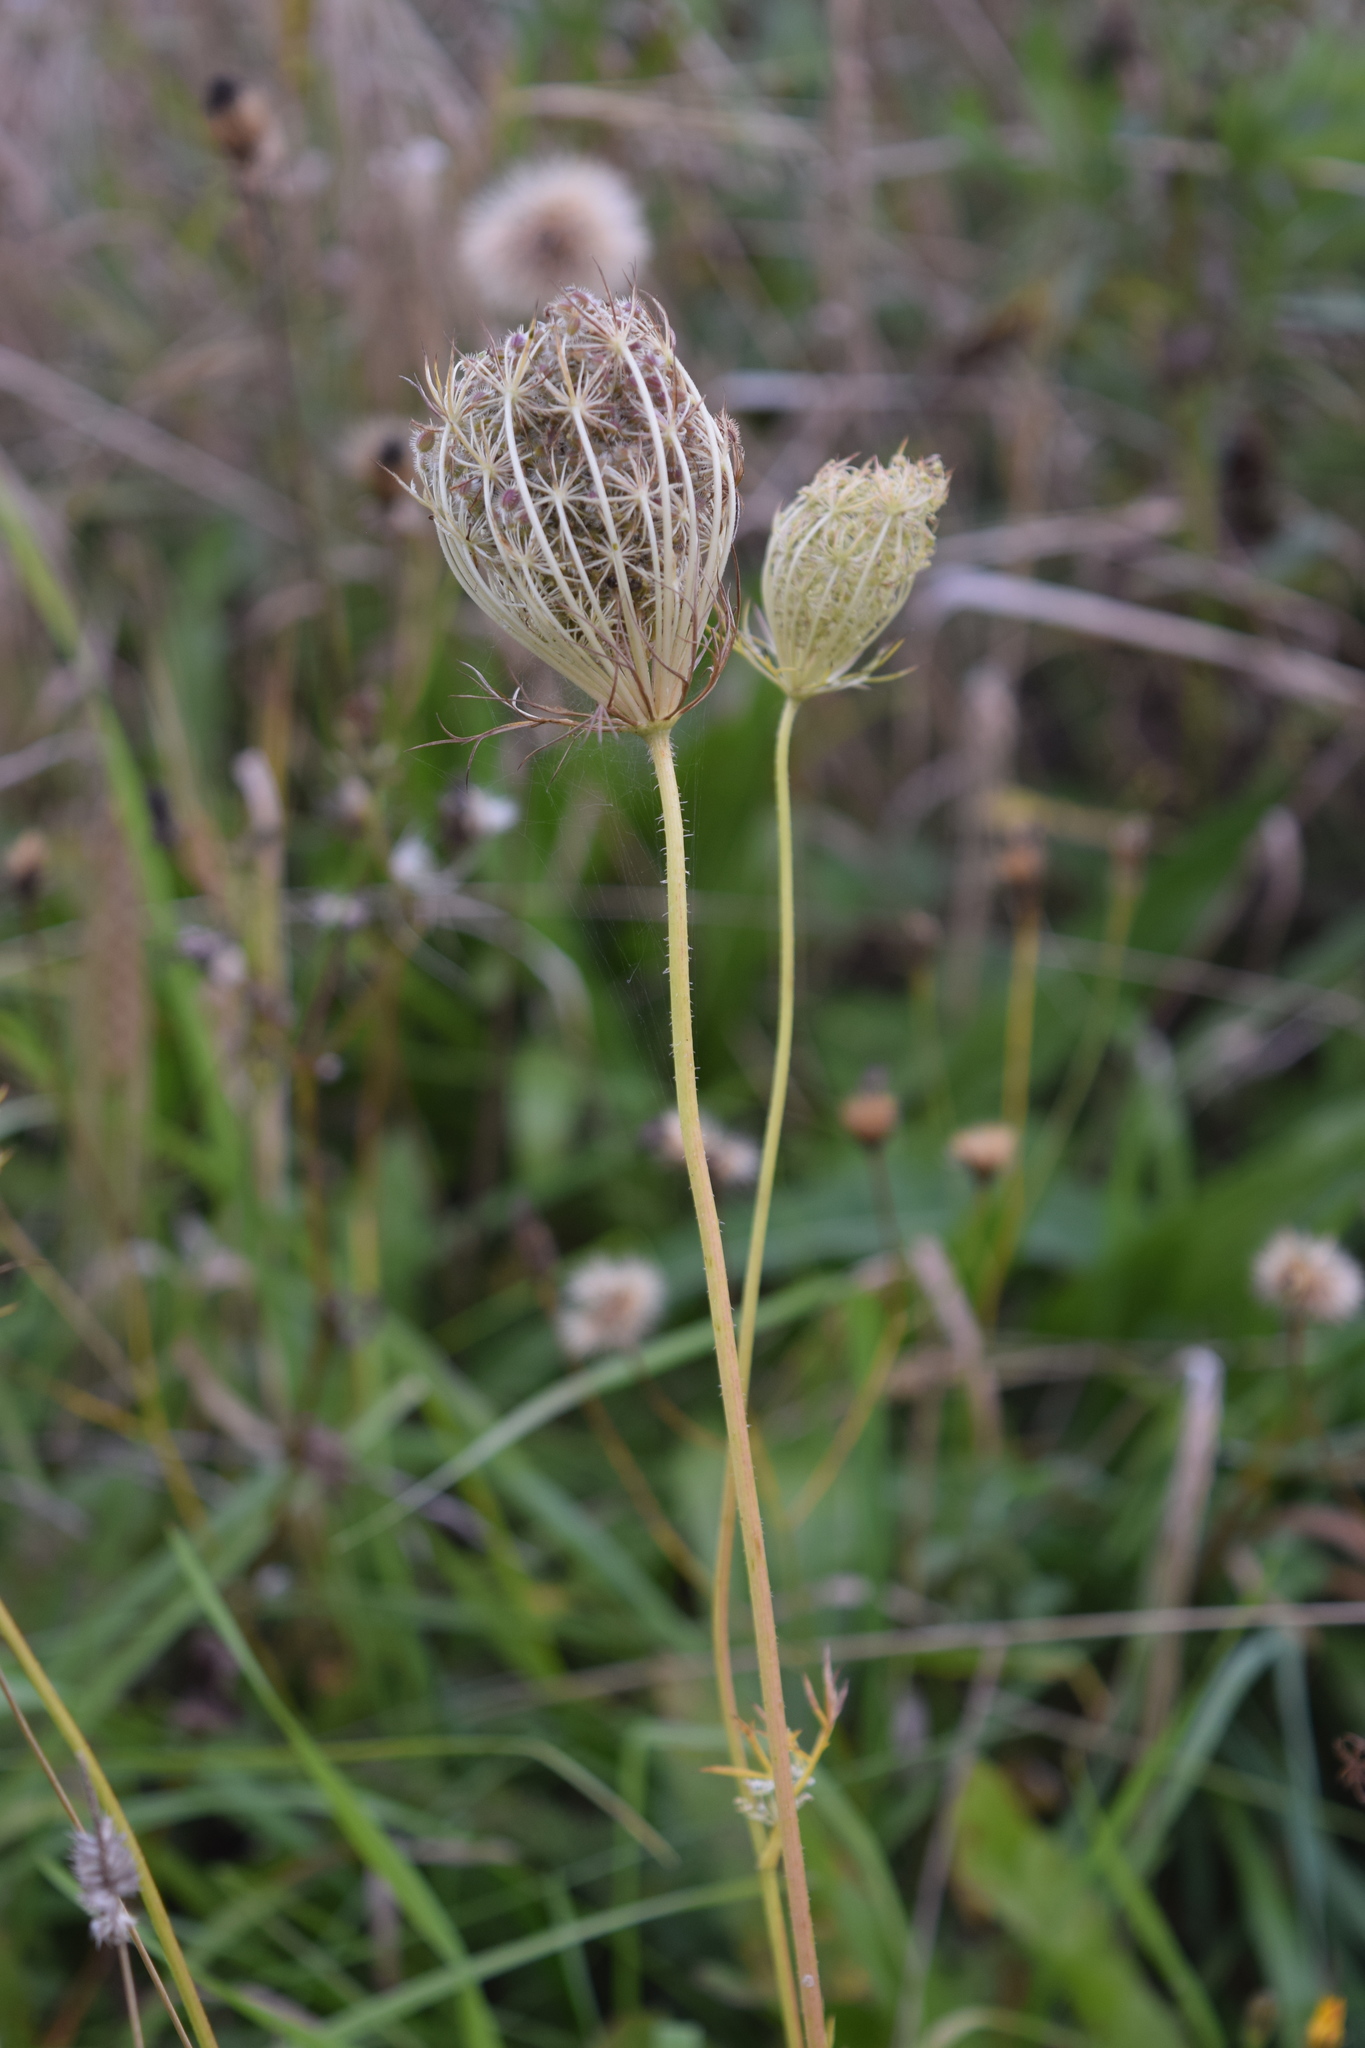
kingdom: Plantae
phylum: Tracheophyta
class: Magnoliopsida
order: Apiales
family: Apiaceae
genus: Daucus
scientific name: Daucus carota
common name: Wild carrot
